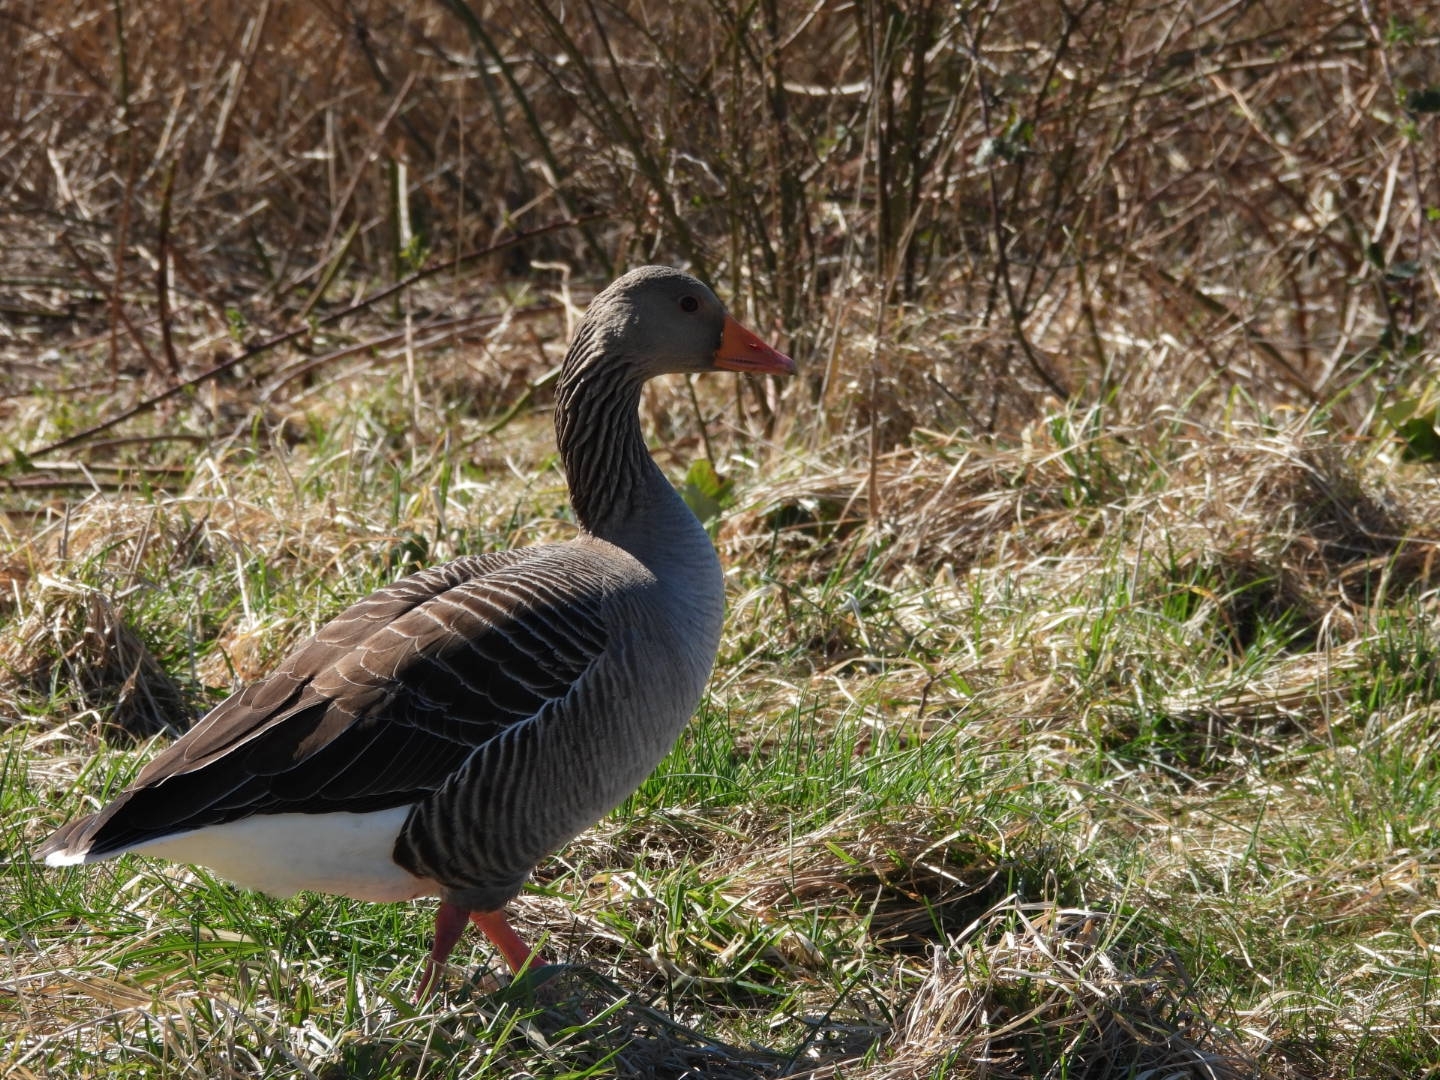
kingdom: Animalia
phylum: Chordata
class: Aves
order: Anseriformes
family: Anatidae
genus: Anser
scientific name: Anser anser
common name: Greylag goose
